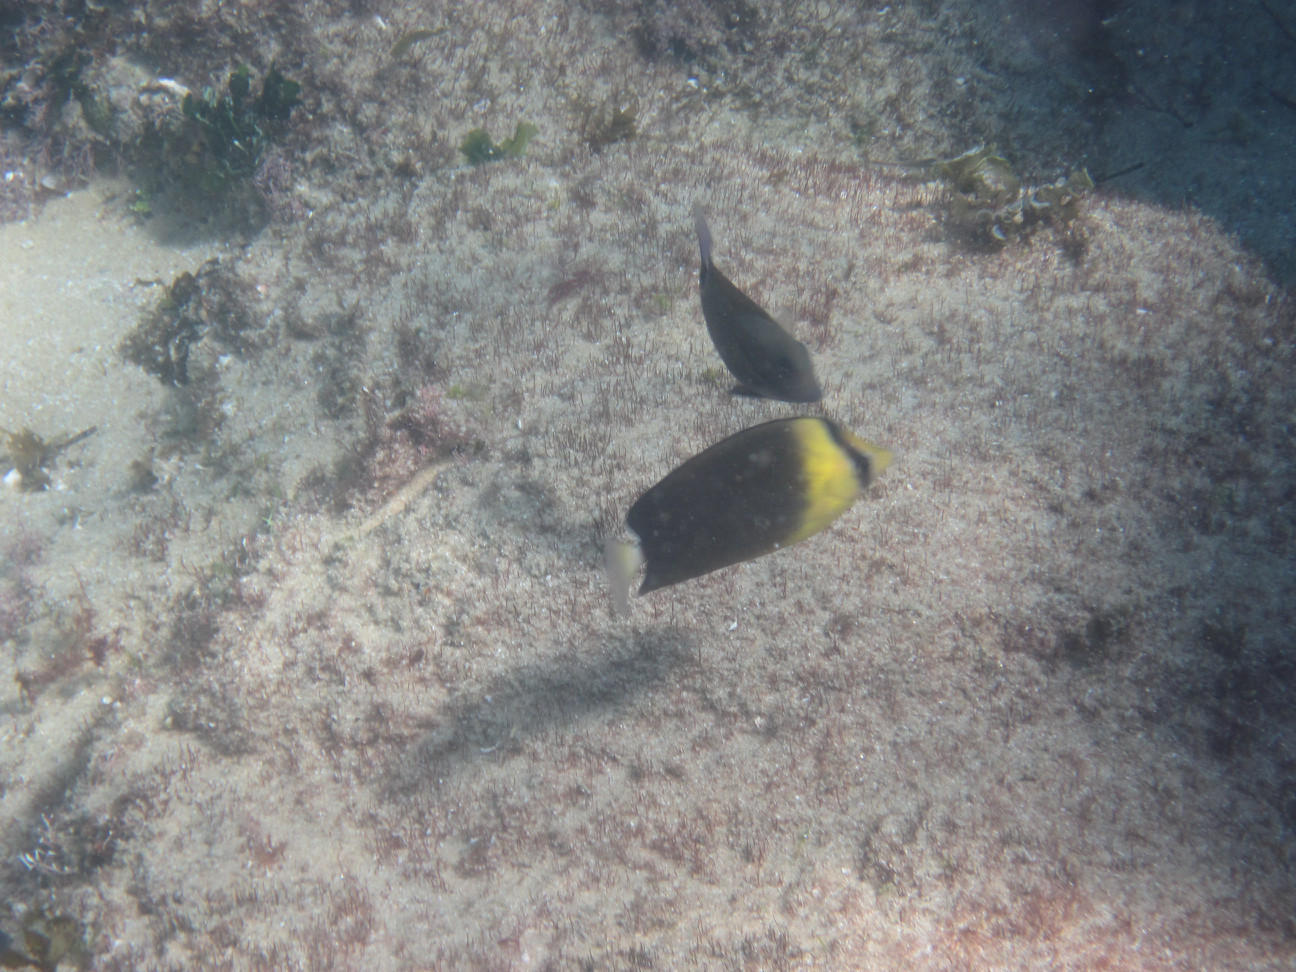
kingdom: Animalia
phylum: Chordata
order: Perciformes
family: Chaetodontidae
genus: Chaetodon
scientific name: Chaetodon blackburnii
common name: Blackburn's butterflyfish
